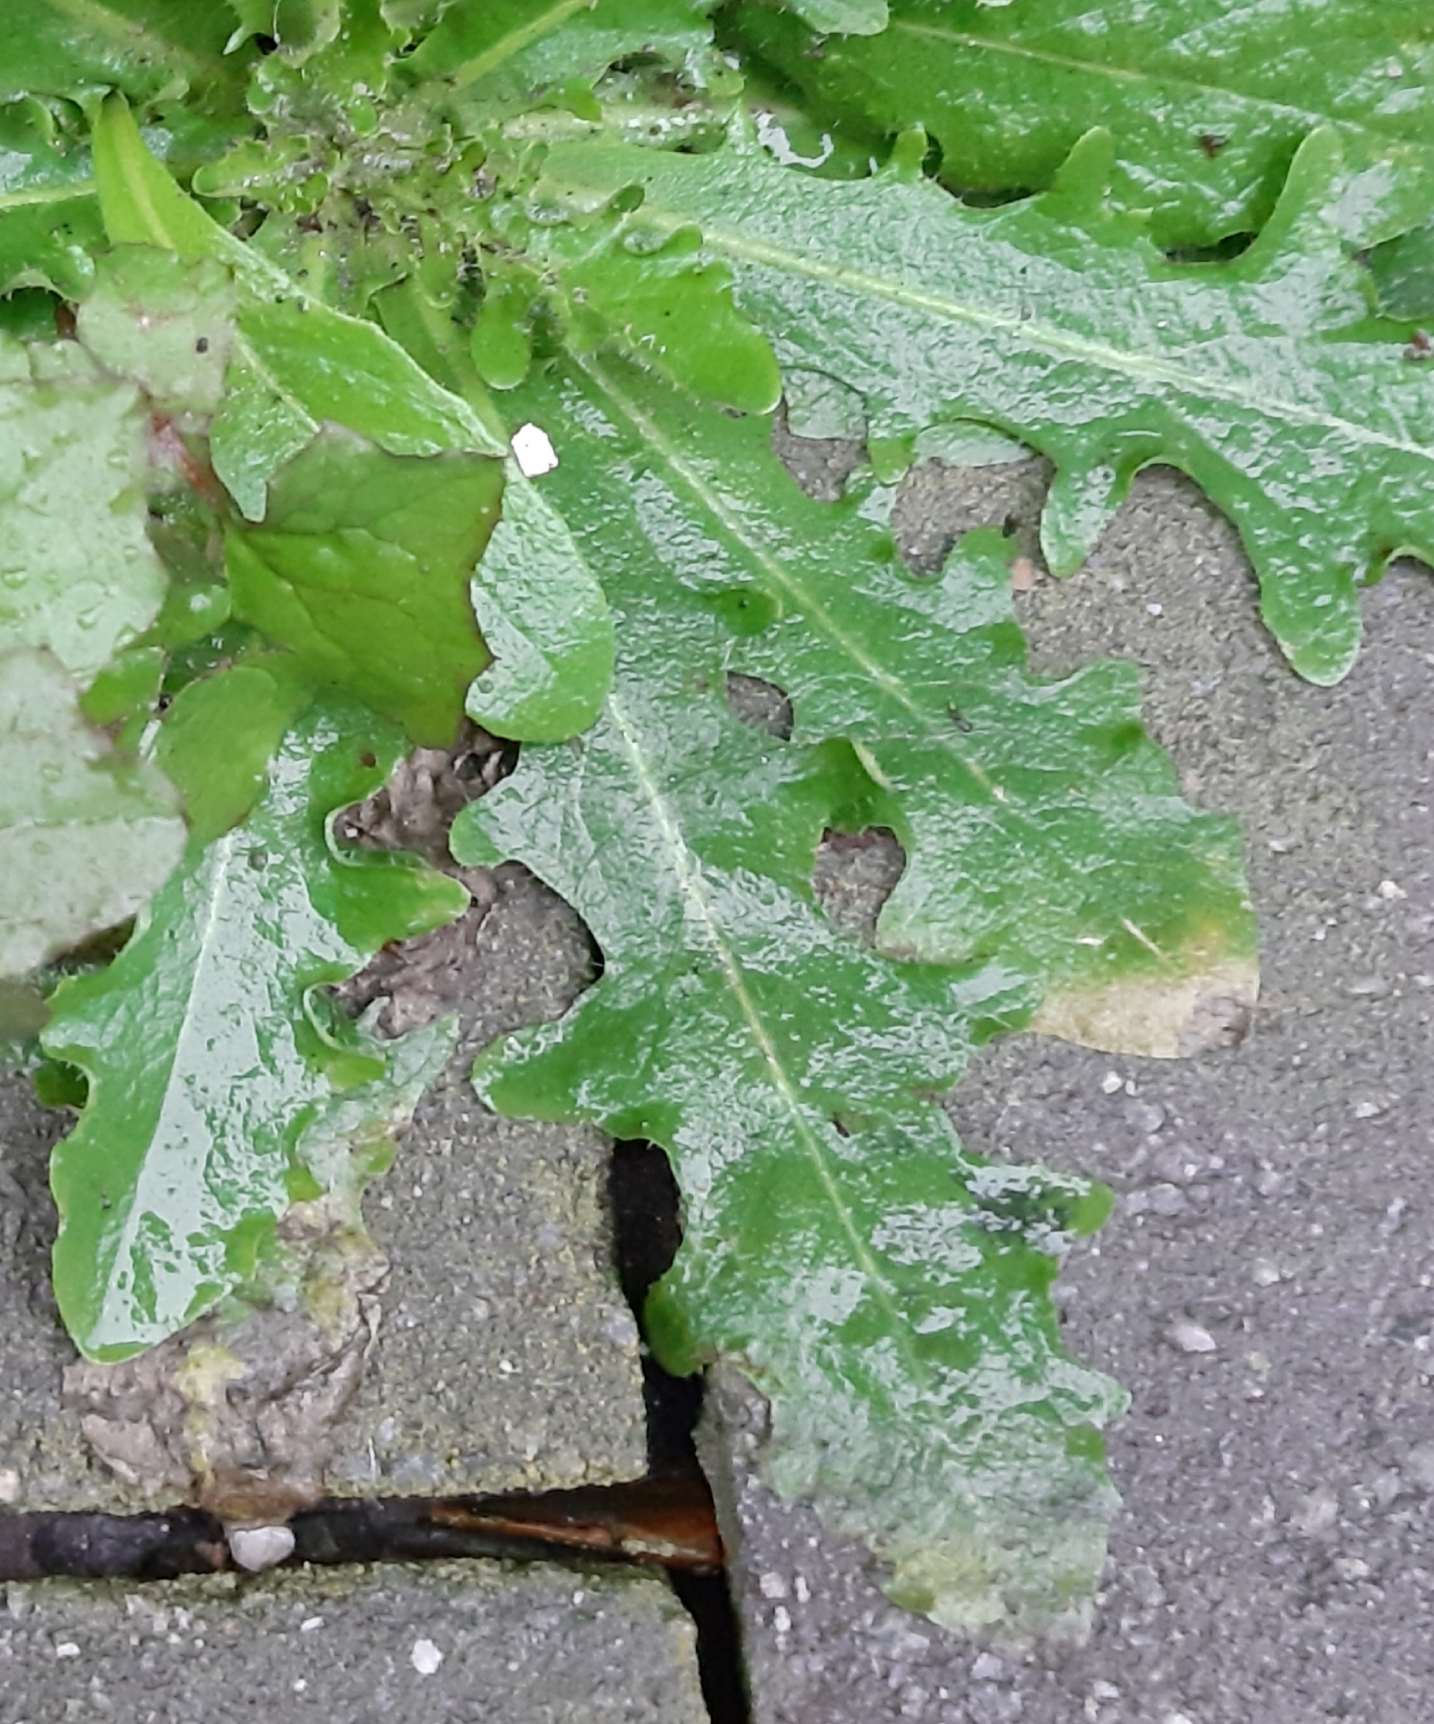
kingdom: Plantae
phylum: Tracheophyta
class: Magnoliopsida
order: Asterales
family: Asteraceae
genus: Hypochaeris
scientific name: Hypochaeris radicata
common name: Flatweed
